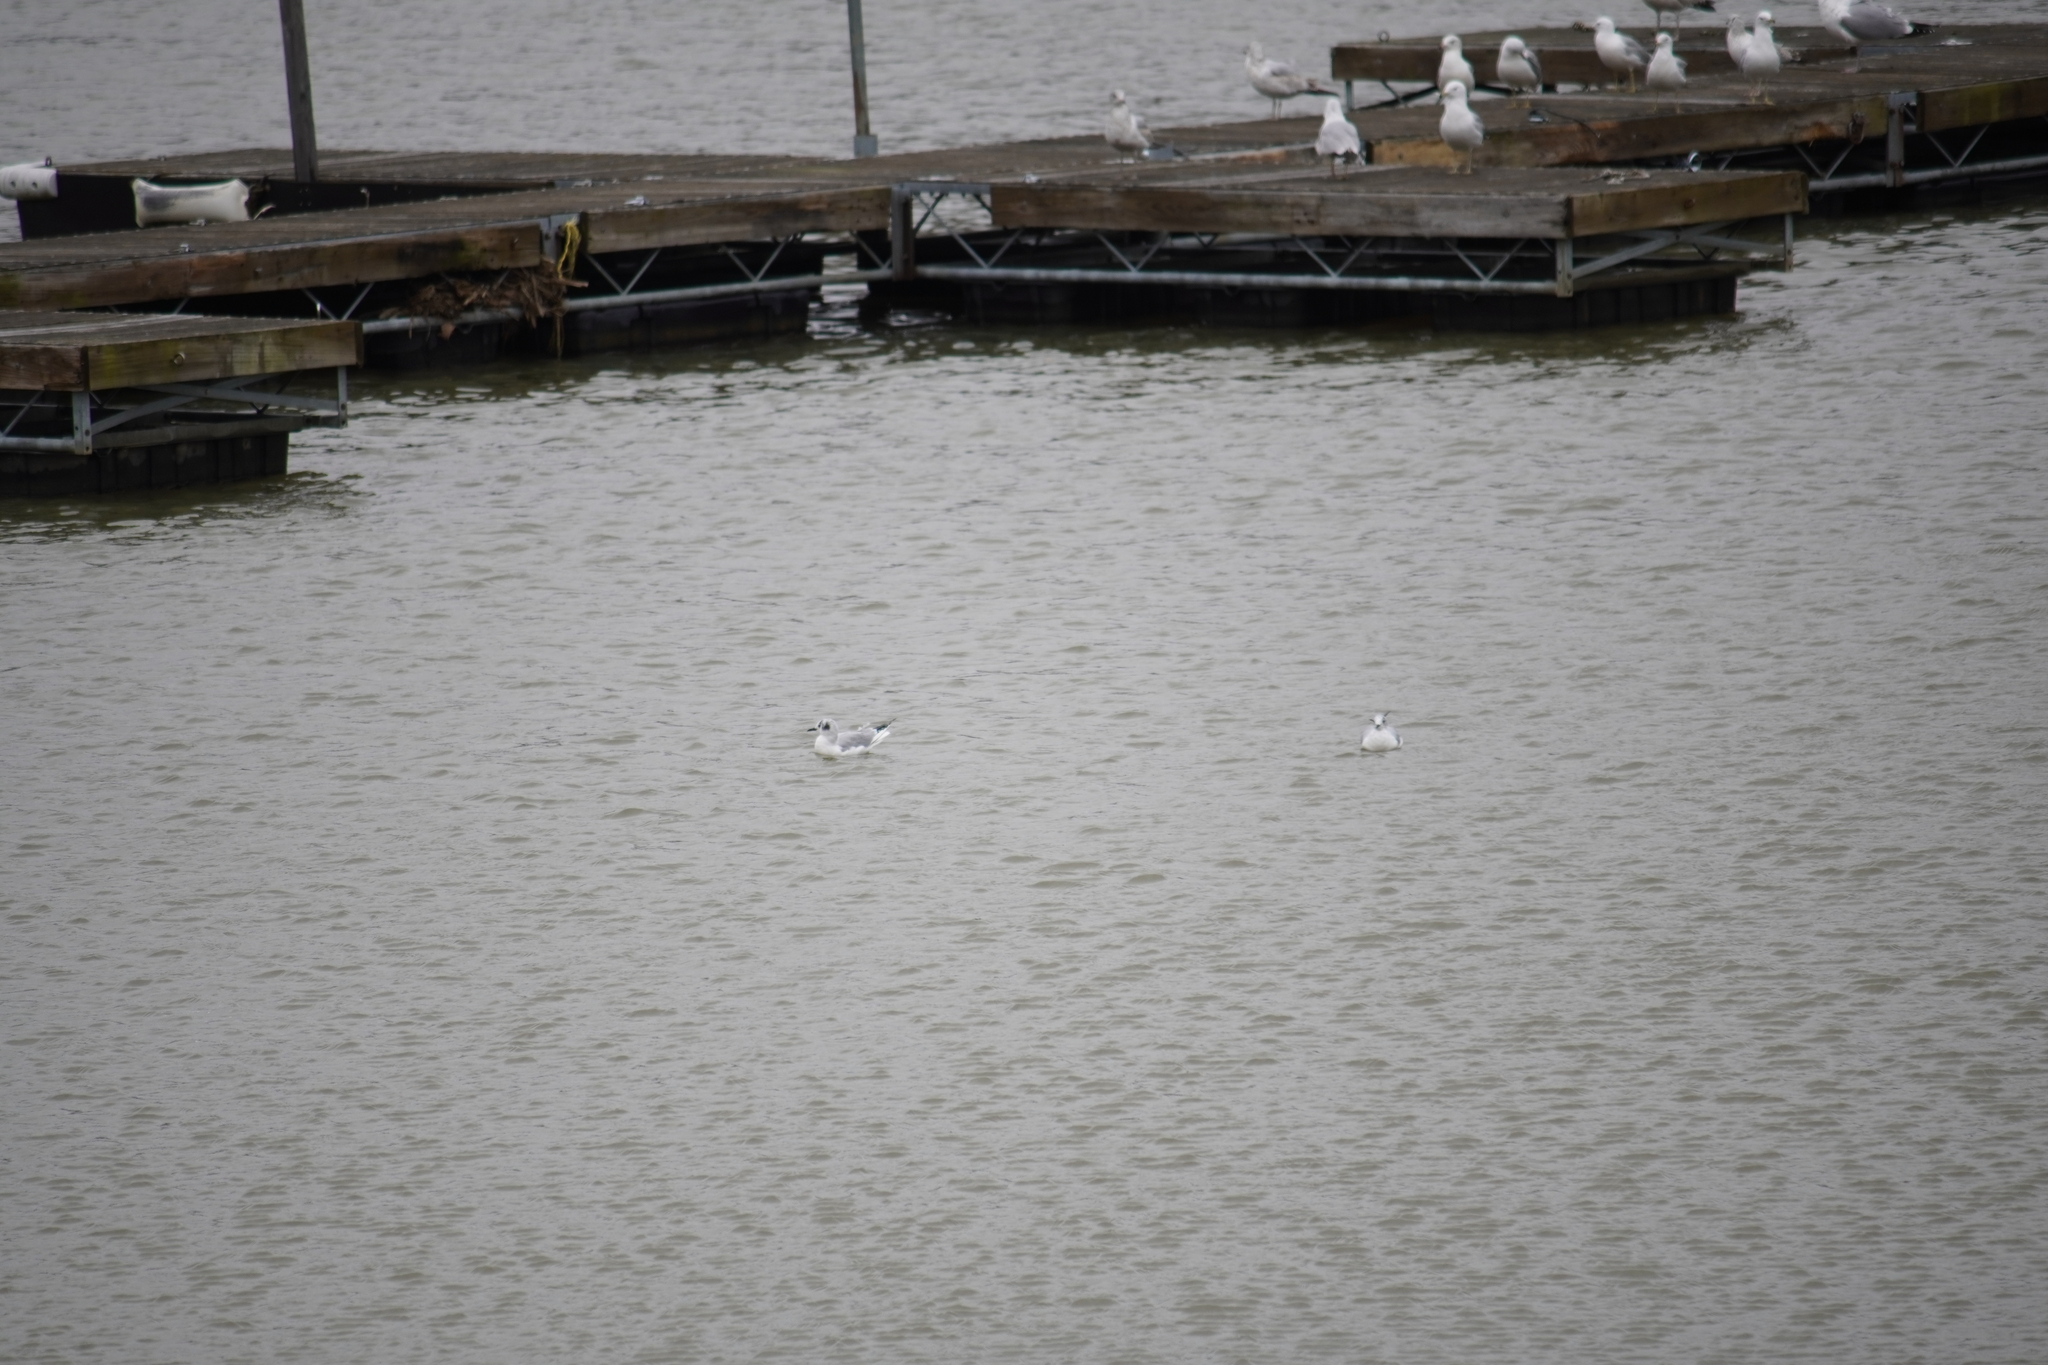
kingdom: Animalia
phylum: Chordata
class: Aves
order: Charadriiformes
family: Laridae
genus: Chroicocephalus
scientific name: Chroicocephalus philadelphia
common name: Bonaparte's gull
